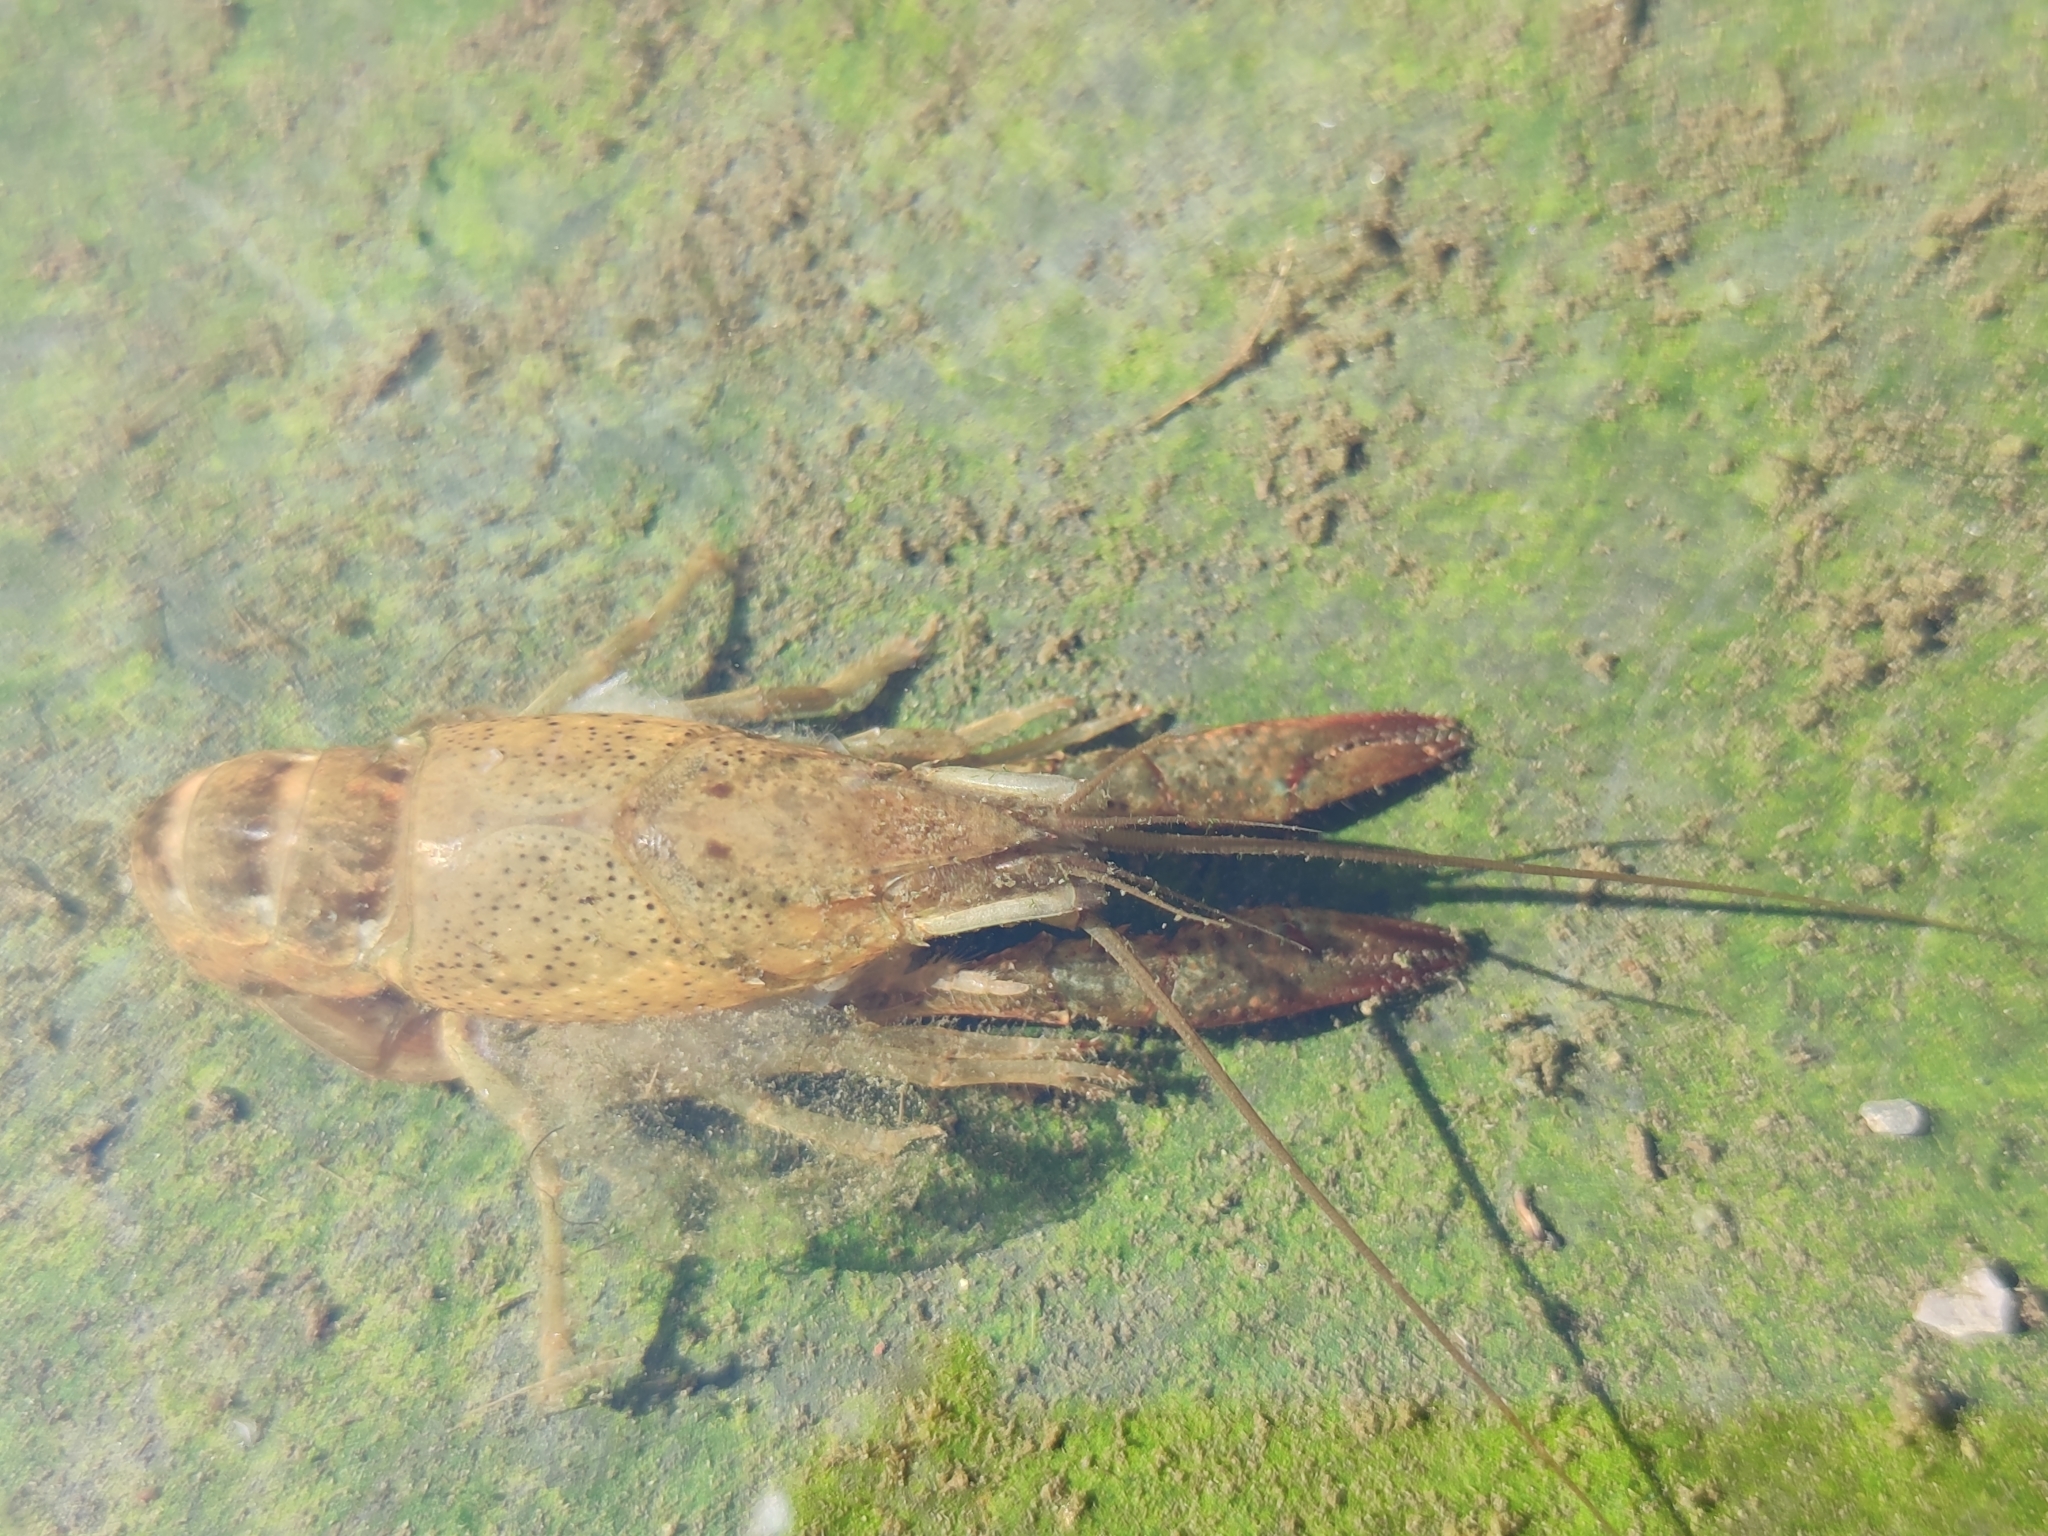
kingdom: Animalia
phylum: Arthropoda
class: Malacostraca
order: Decapoda
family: Cambaridae
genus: Procambarus
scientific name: Procambarus clarkii
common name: Red swamp crayfish
